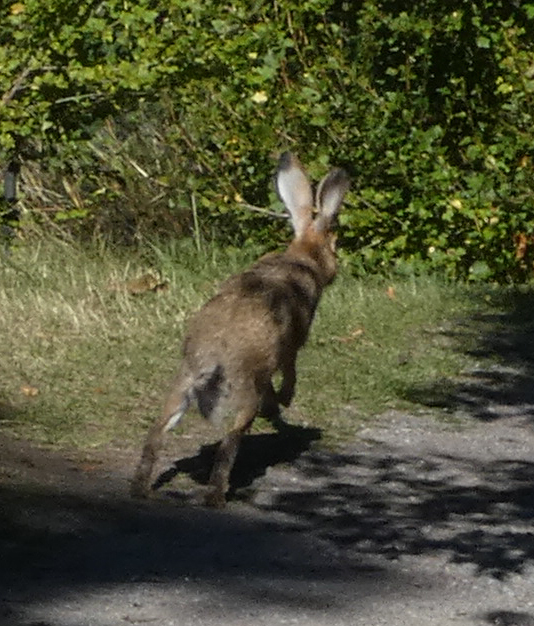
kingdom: Animalia
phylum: Chordata
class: Mammalia
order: Lagomorpha
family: Leporidae
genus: Lepus
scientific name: Lepus europaeus
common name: European hare
